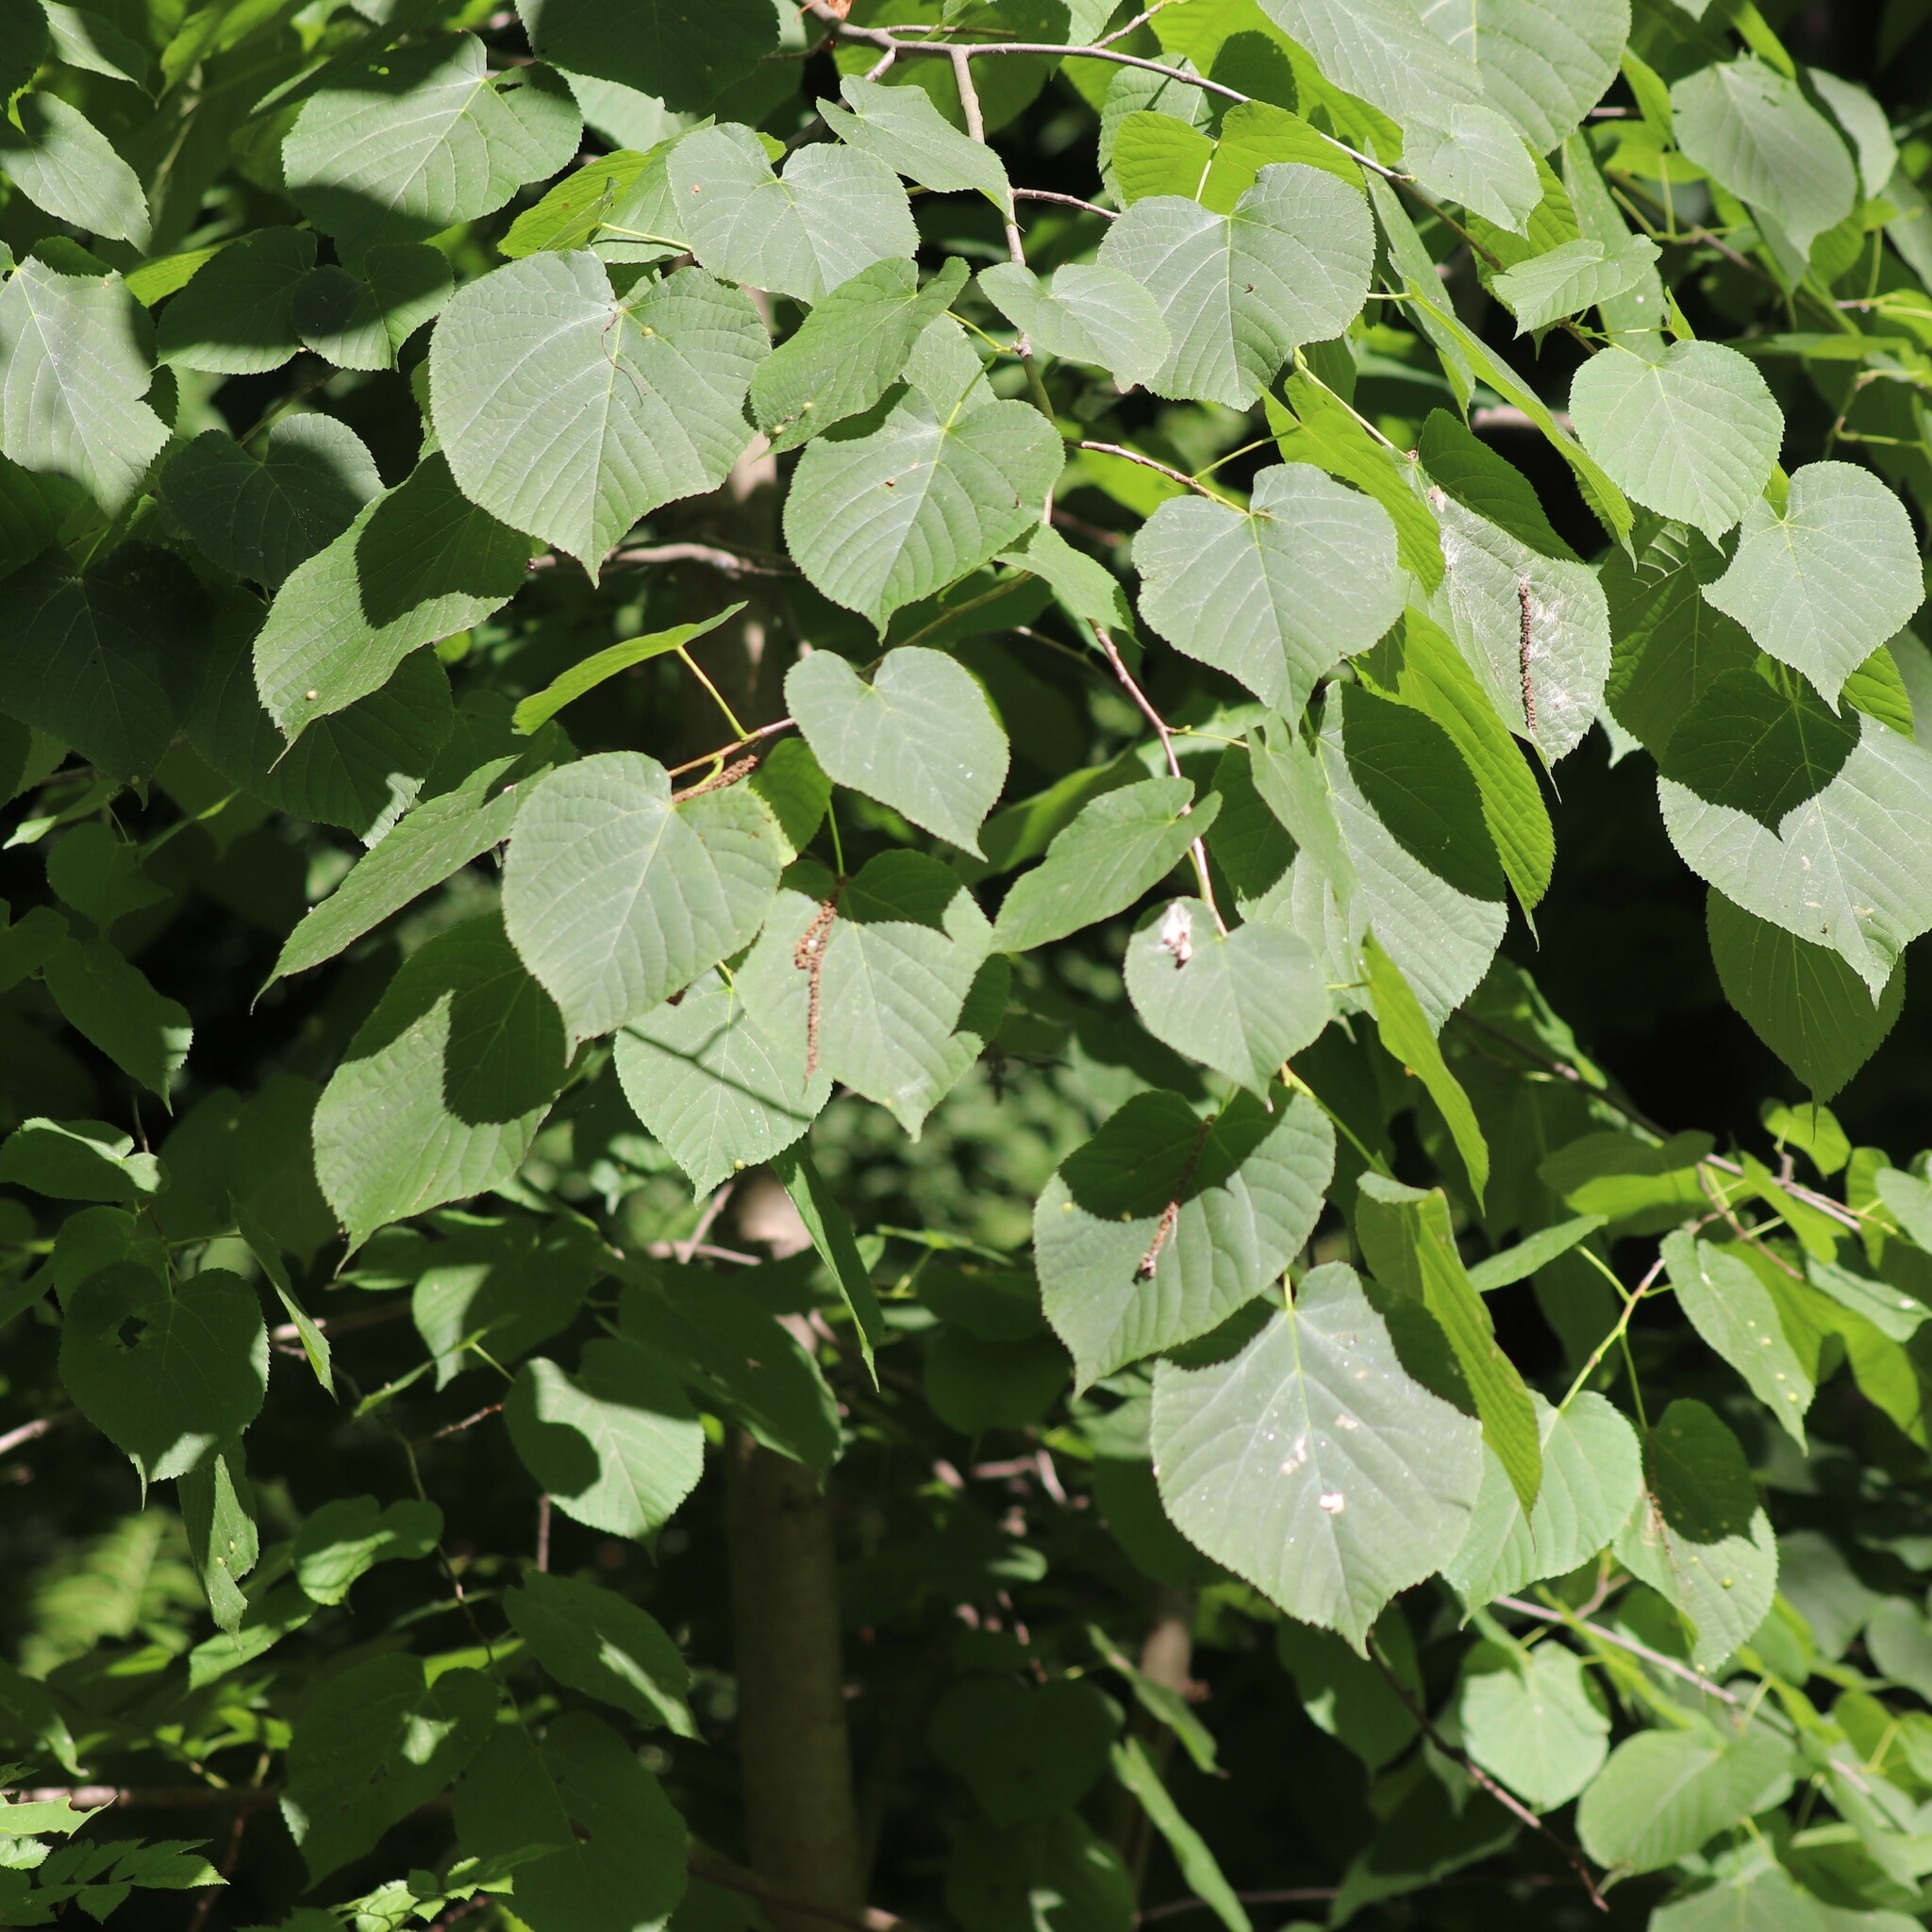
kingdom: Plantae
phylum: Tracheophyta
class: Magnoliopsida
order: Malvales
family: Malvaceae
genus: Tilia
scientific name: Tilia americana
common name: Basswood
